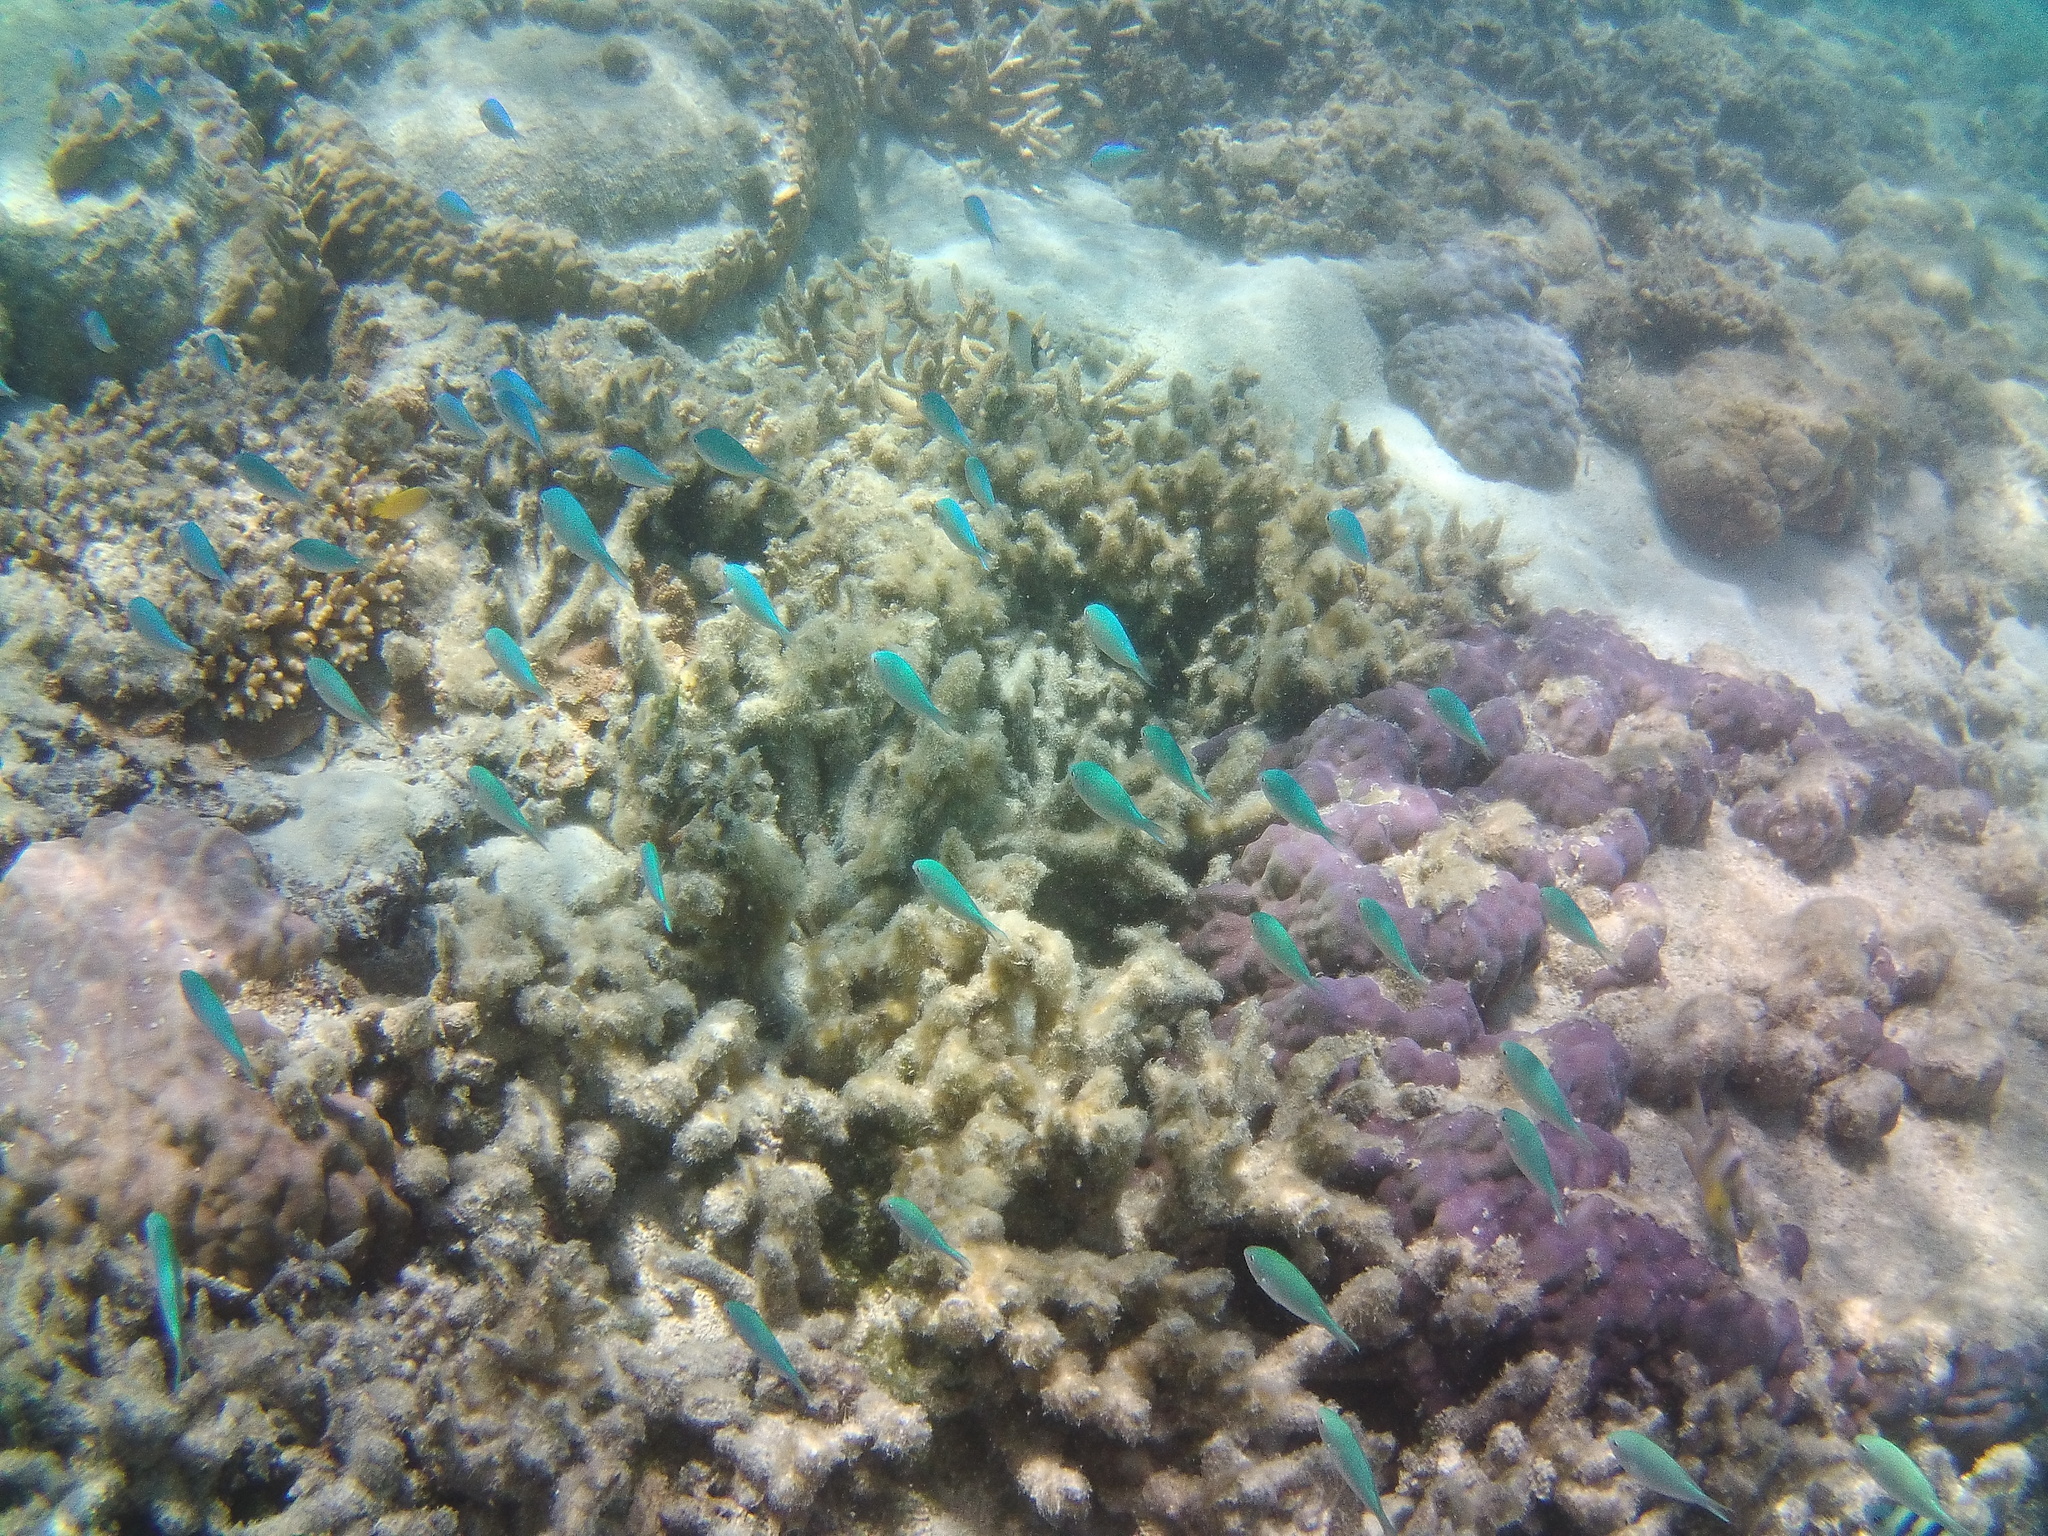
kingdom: Animalia
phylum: Chordata
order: Perciformes
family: Pomacentridae
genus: Chromis
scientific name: Chromis viridis
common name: Blue-green chromis
